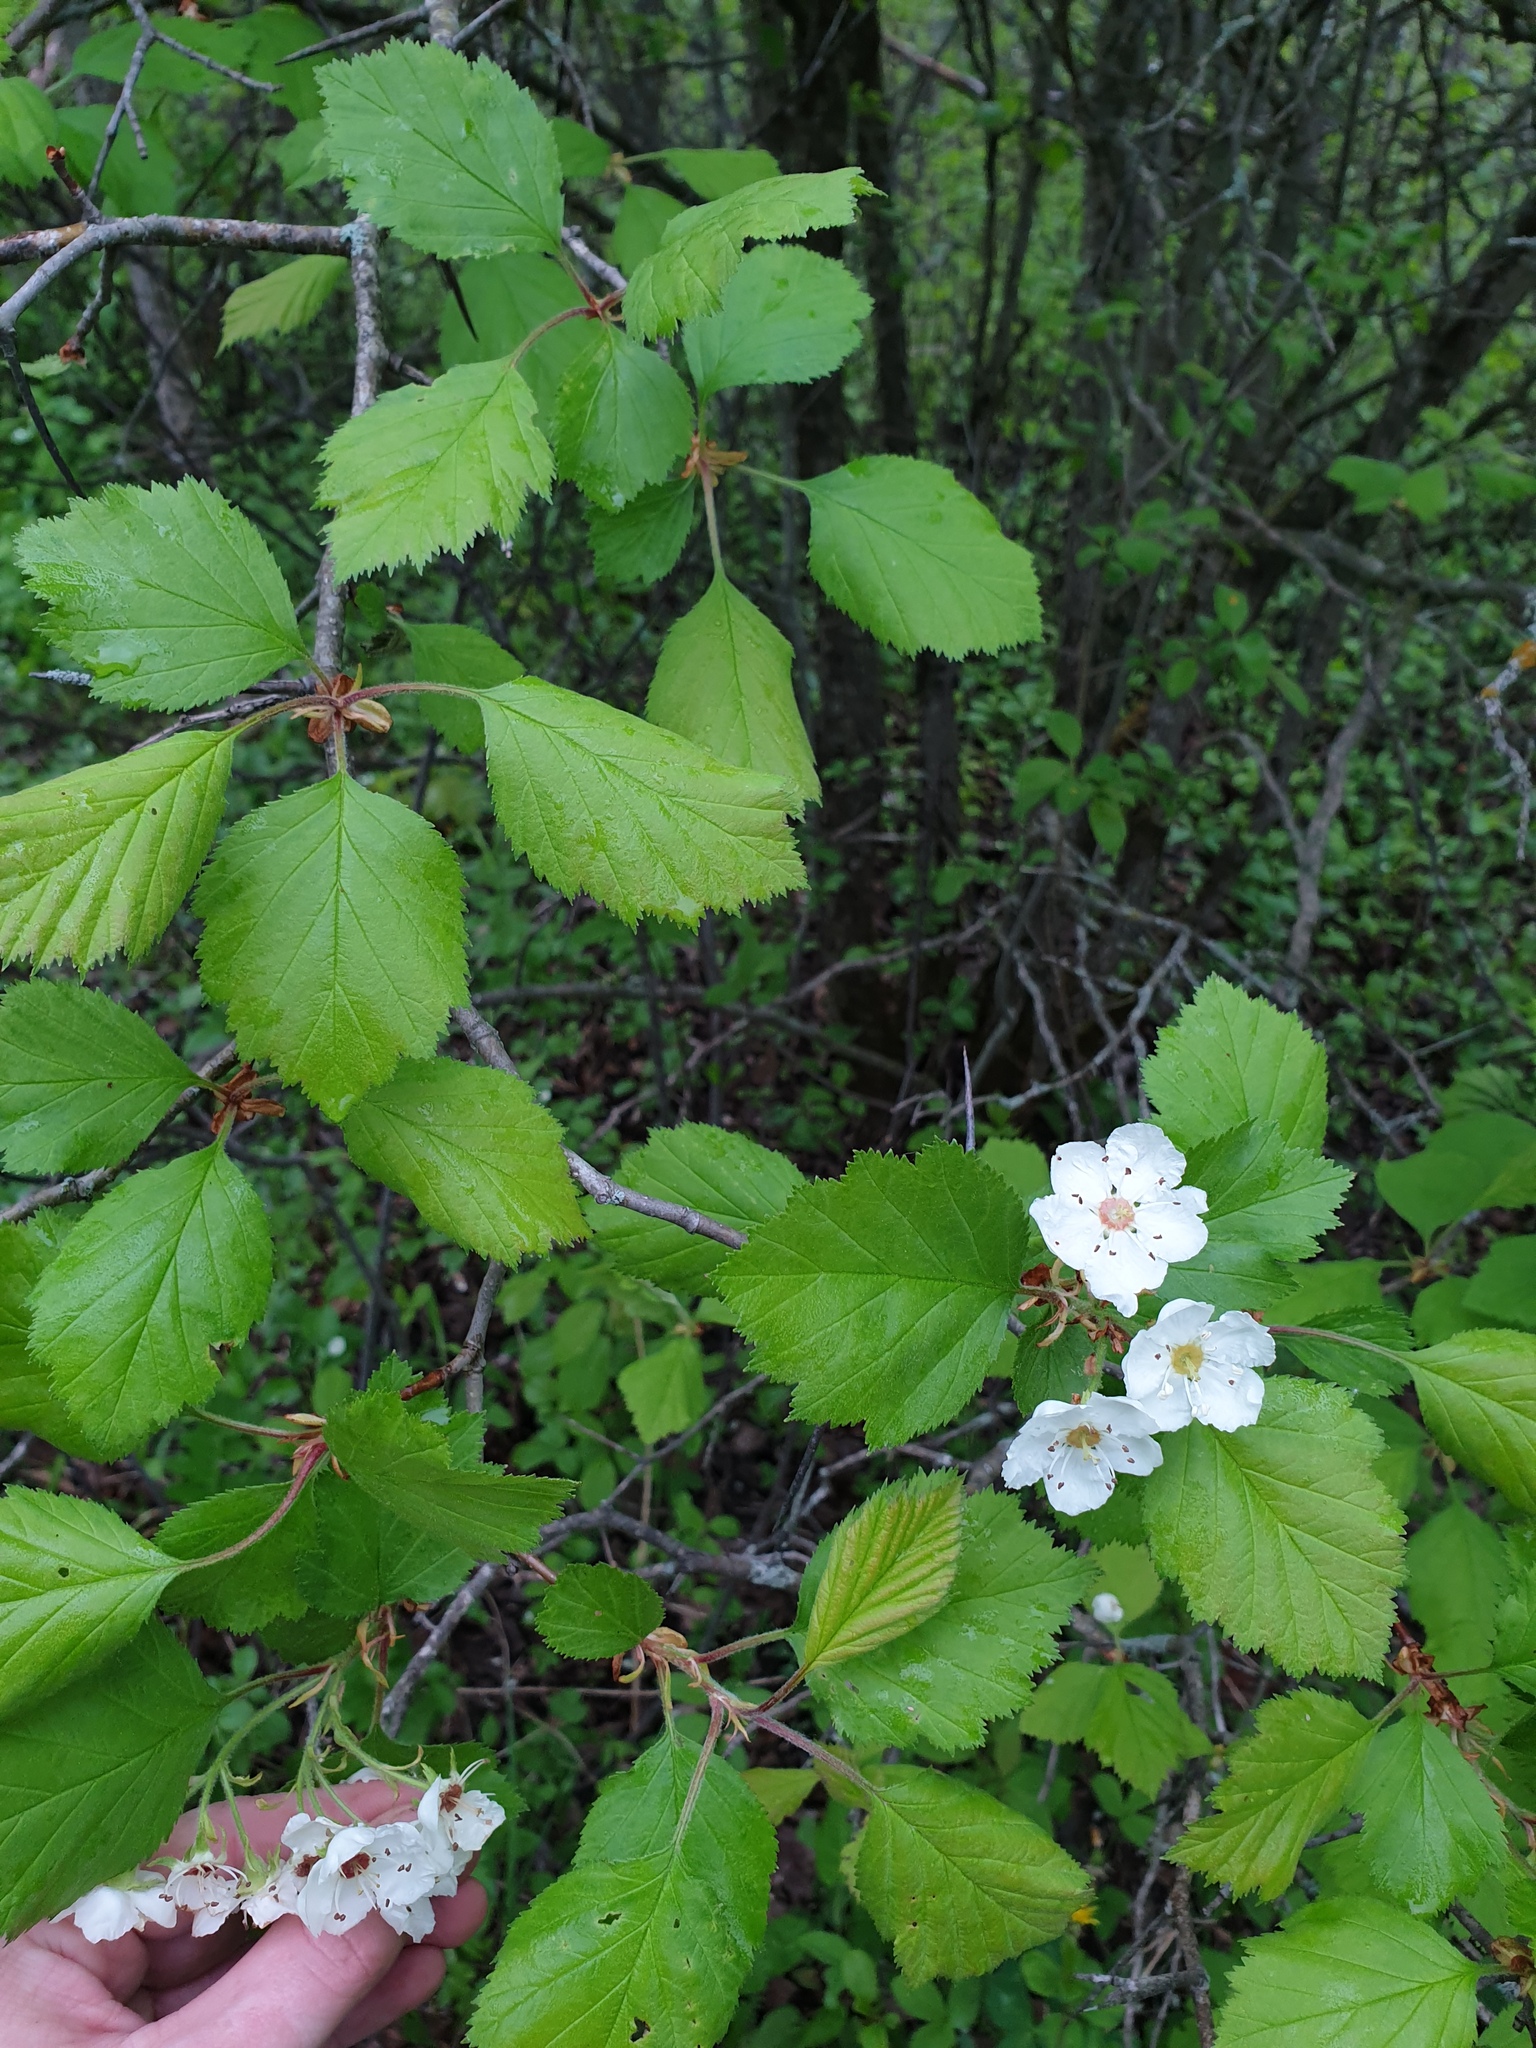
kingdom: Plantae
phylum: Tracheophyta
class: Magnoliopsida
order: Rosales
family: Rosaceae
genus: Crataegus
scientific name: Crataegus submollis
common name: Hairy cockspurthorn
